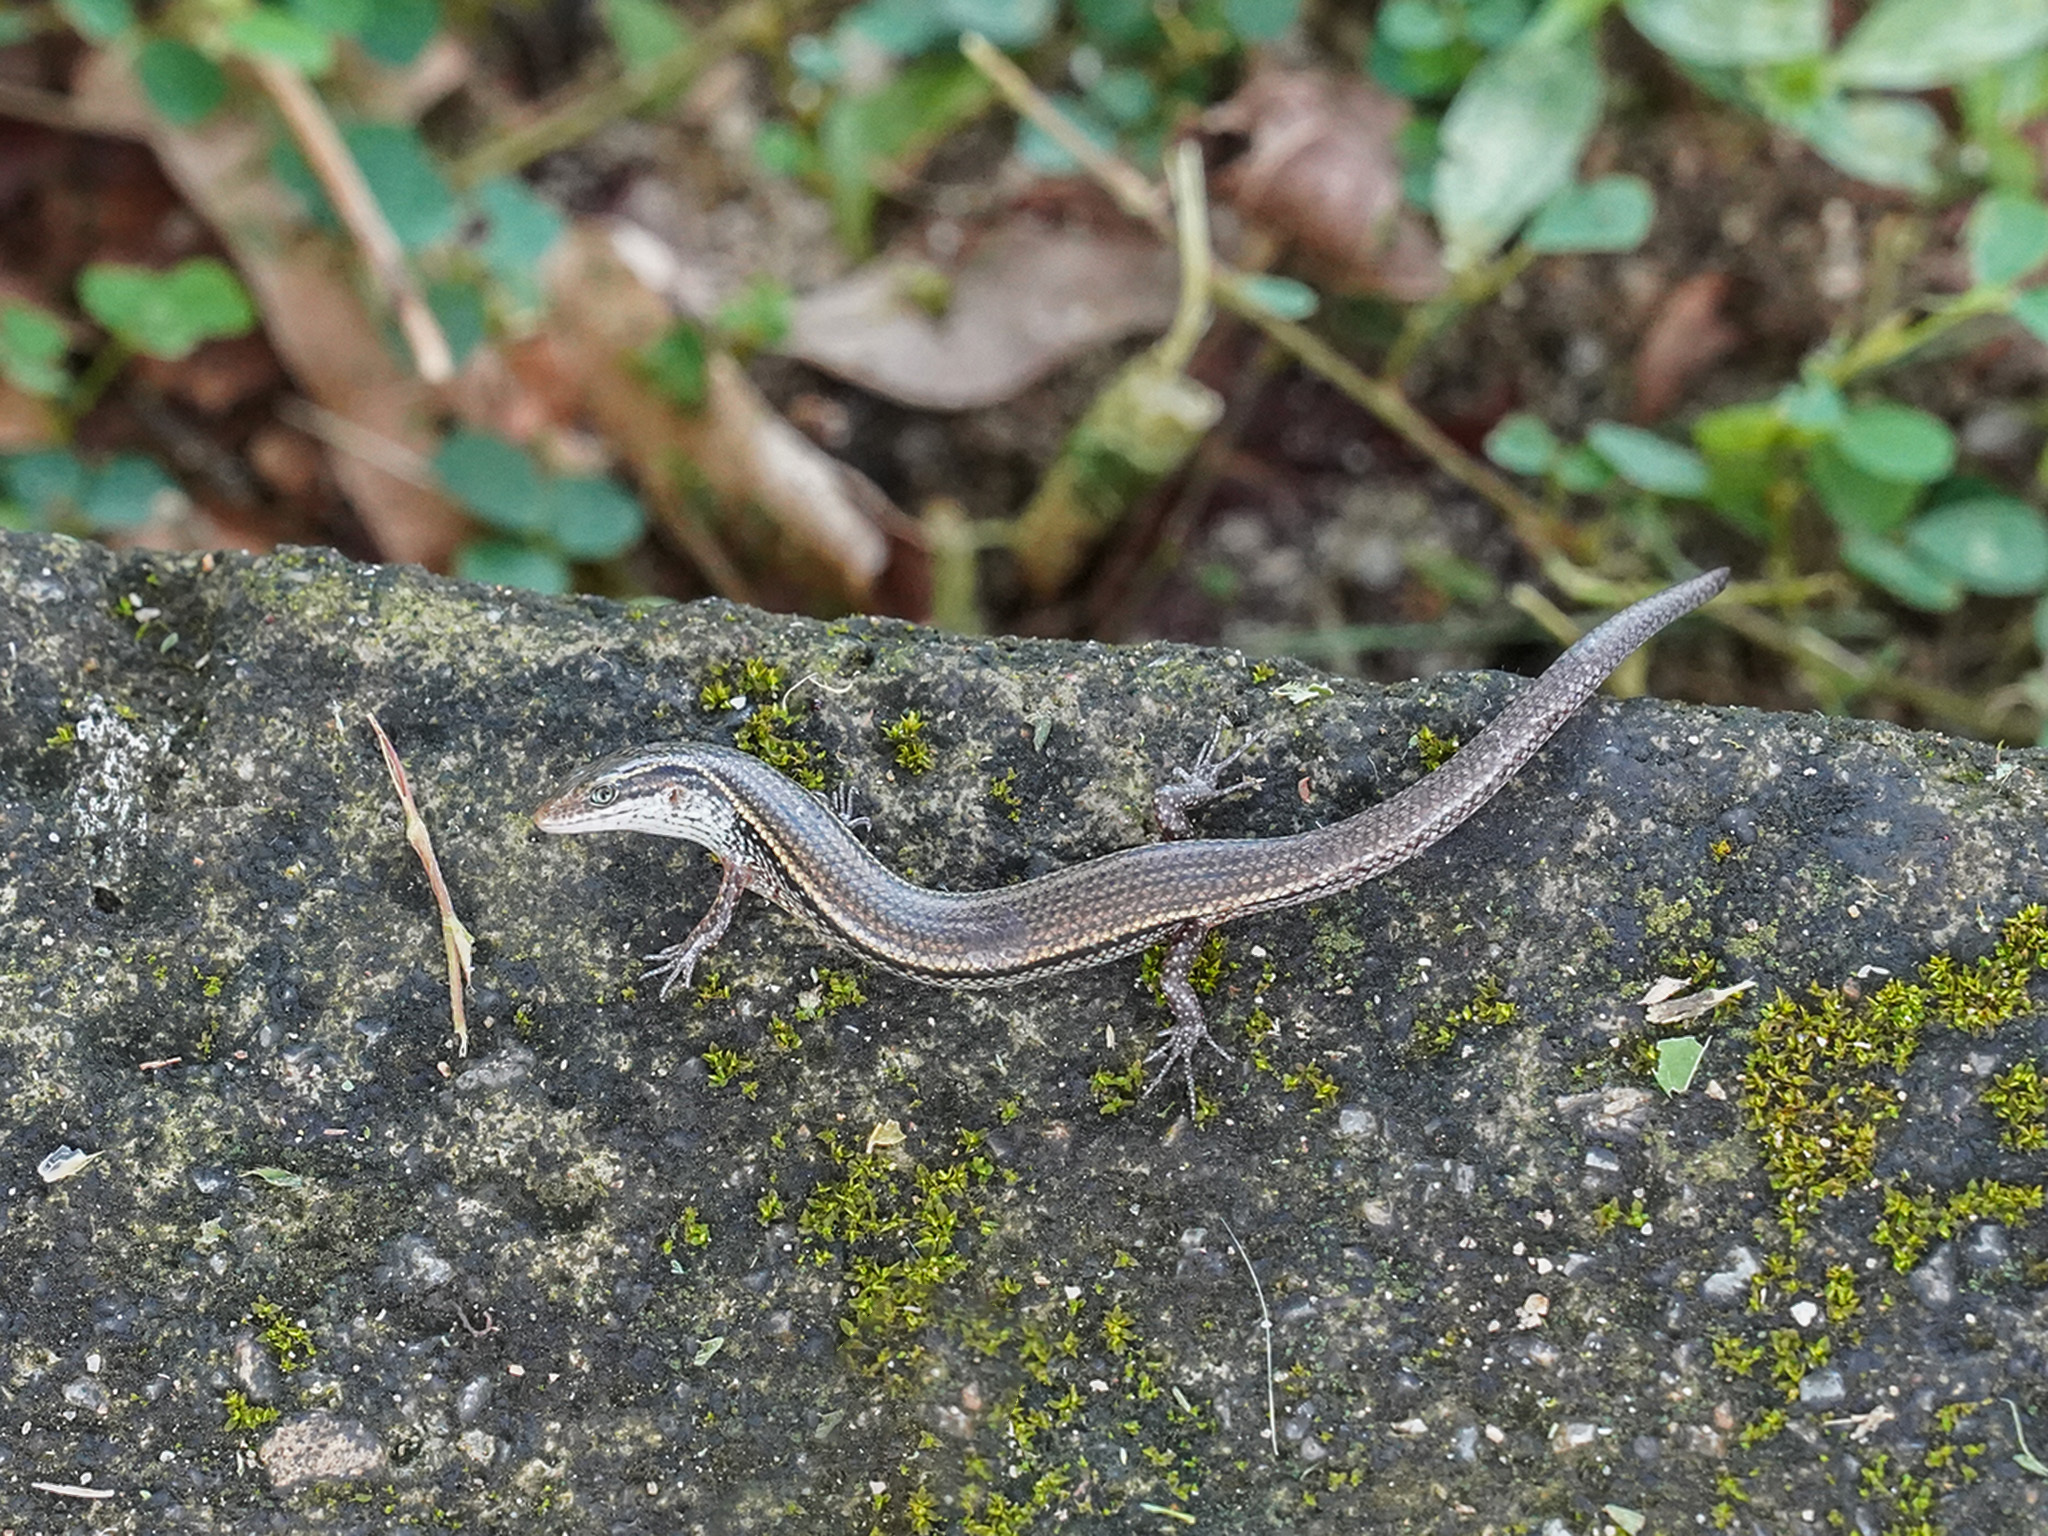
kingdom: Animalia
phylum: Chordata
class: Squamata
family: Scincidae
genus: Subdoluseps
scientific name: Subdoluseps bowringii
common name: Christmas island grass-skink
